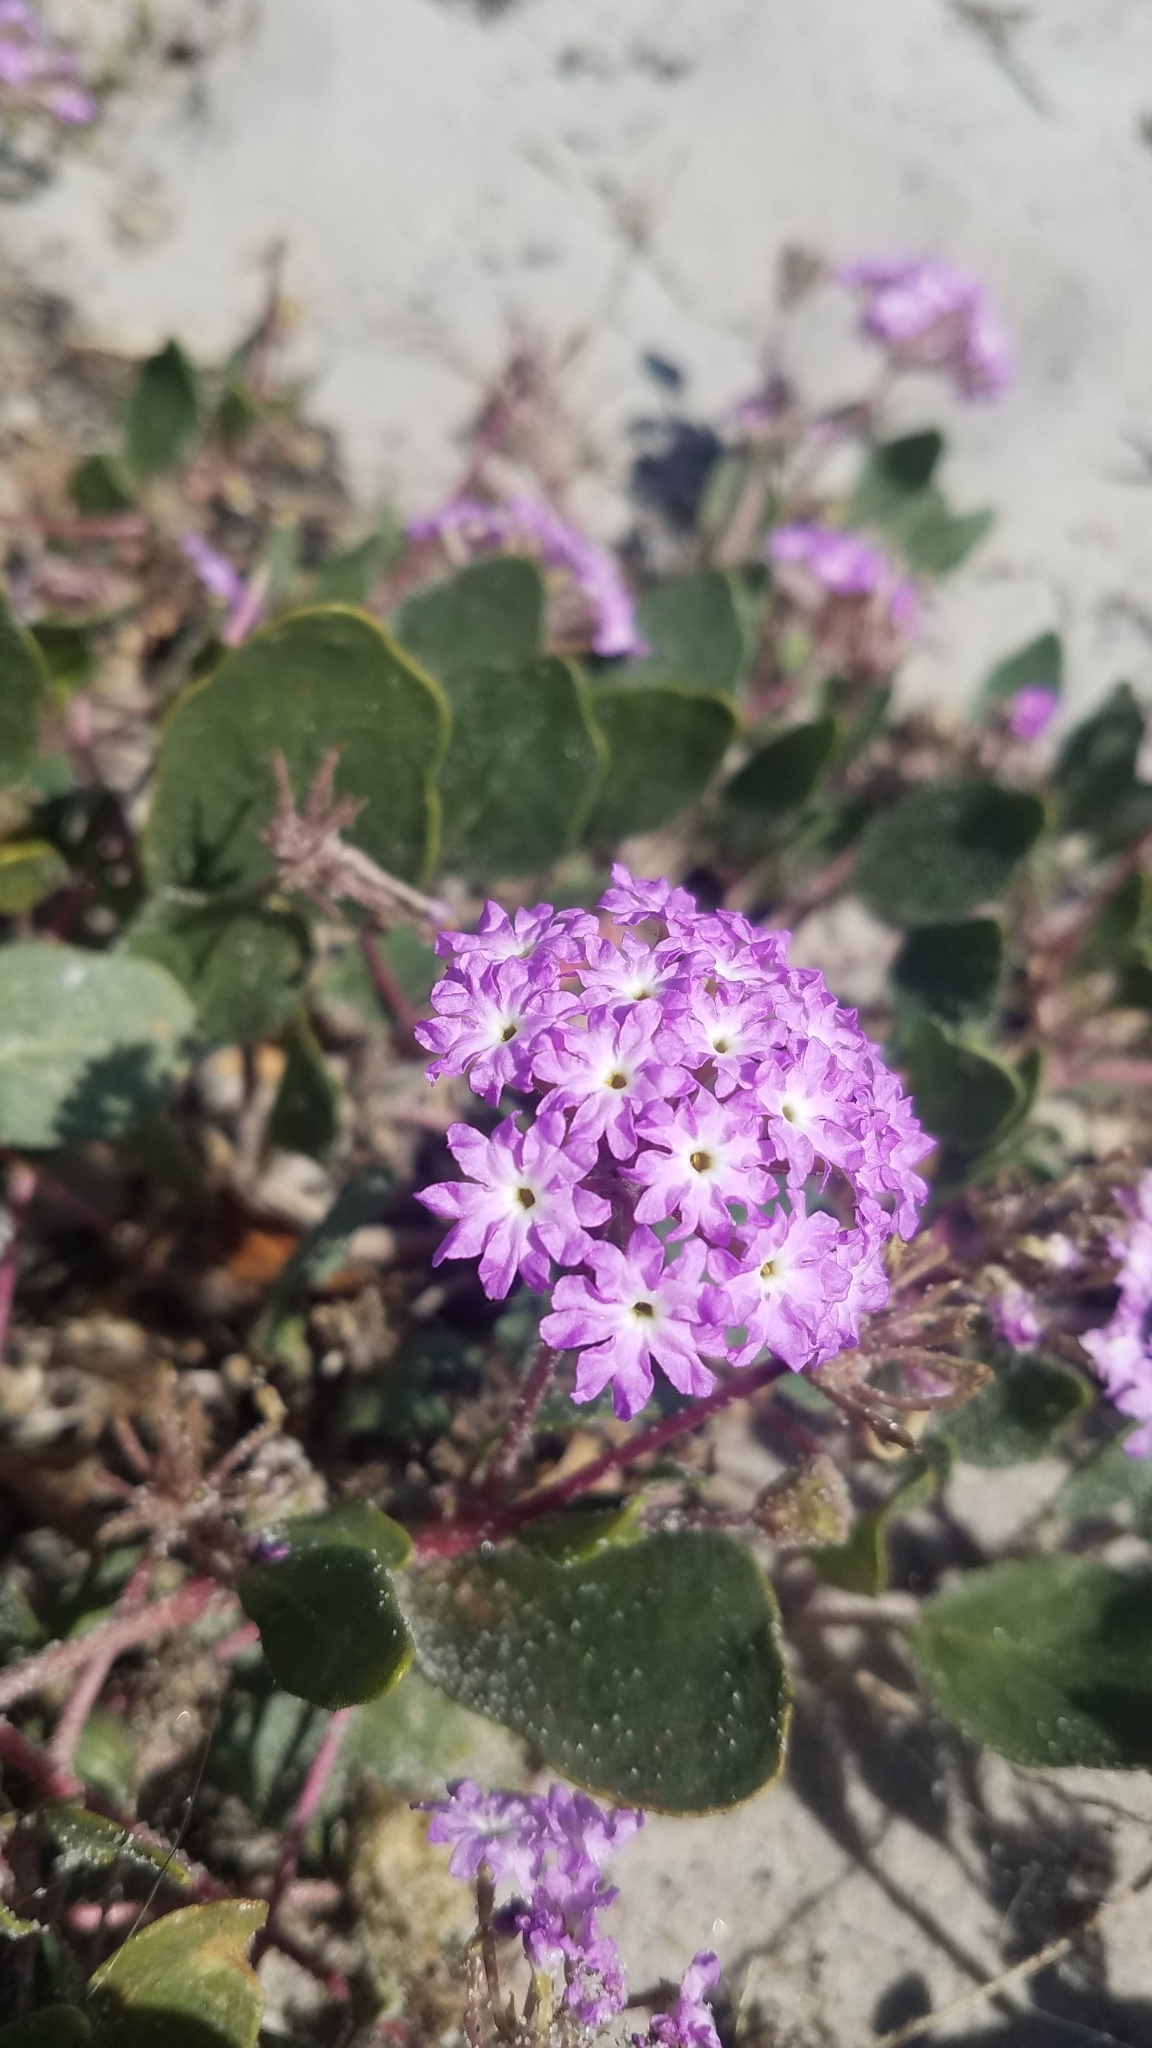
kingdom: Plantae
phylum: Tracheophyta
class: Magnoliopsida
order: Caryophyllales
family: Nyctaginaceae
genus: Abronia
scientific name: Abronia umbellata
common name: Sand-verbena
